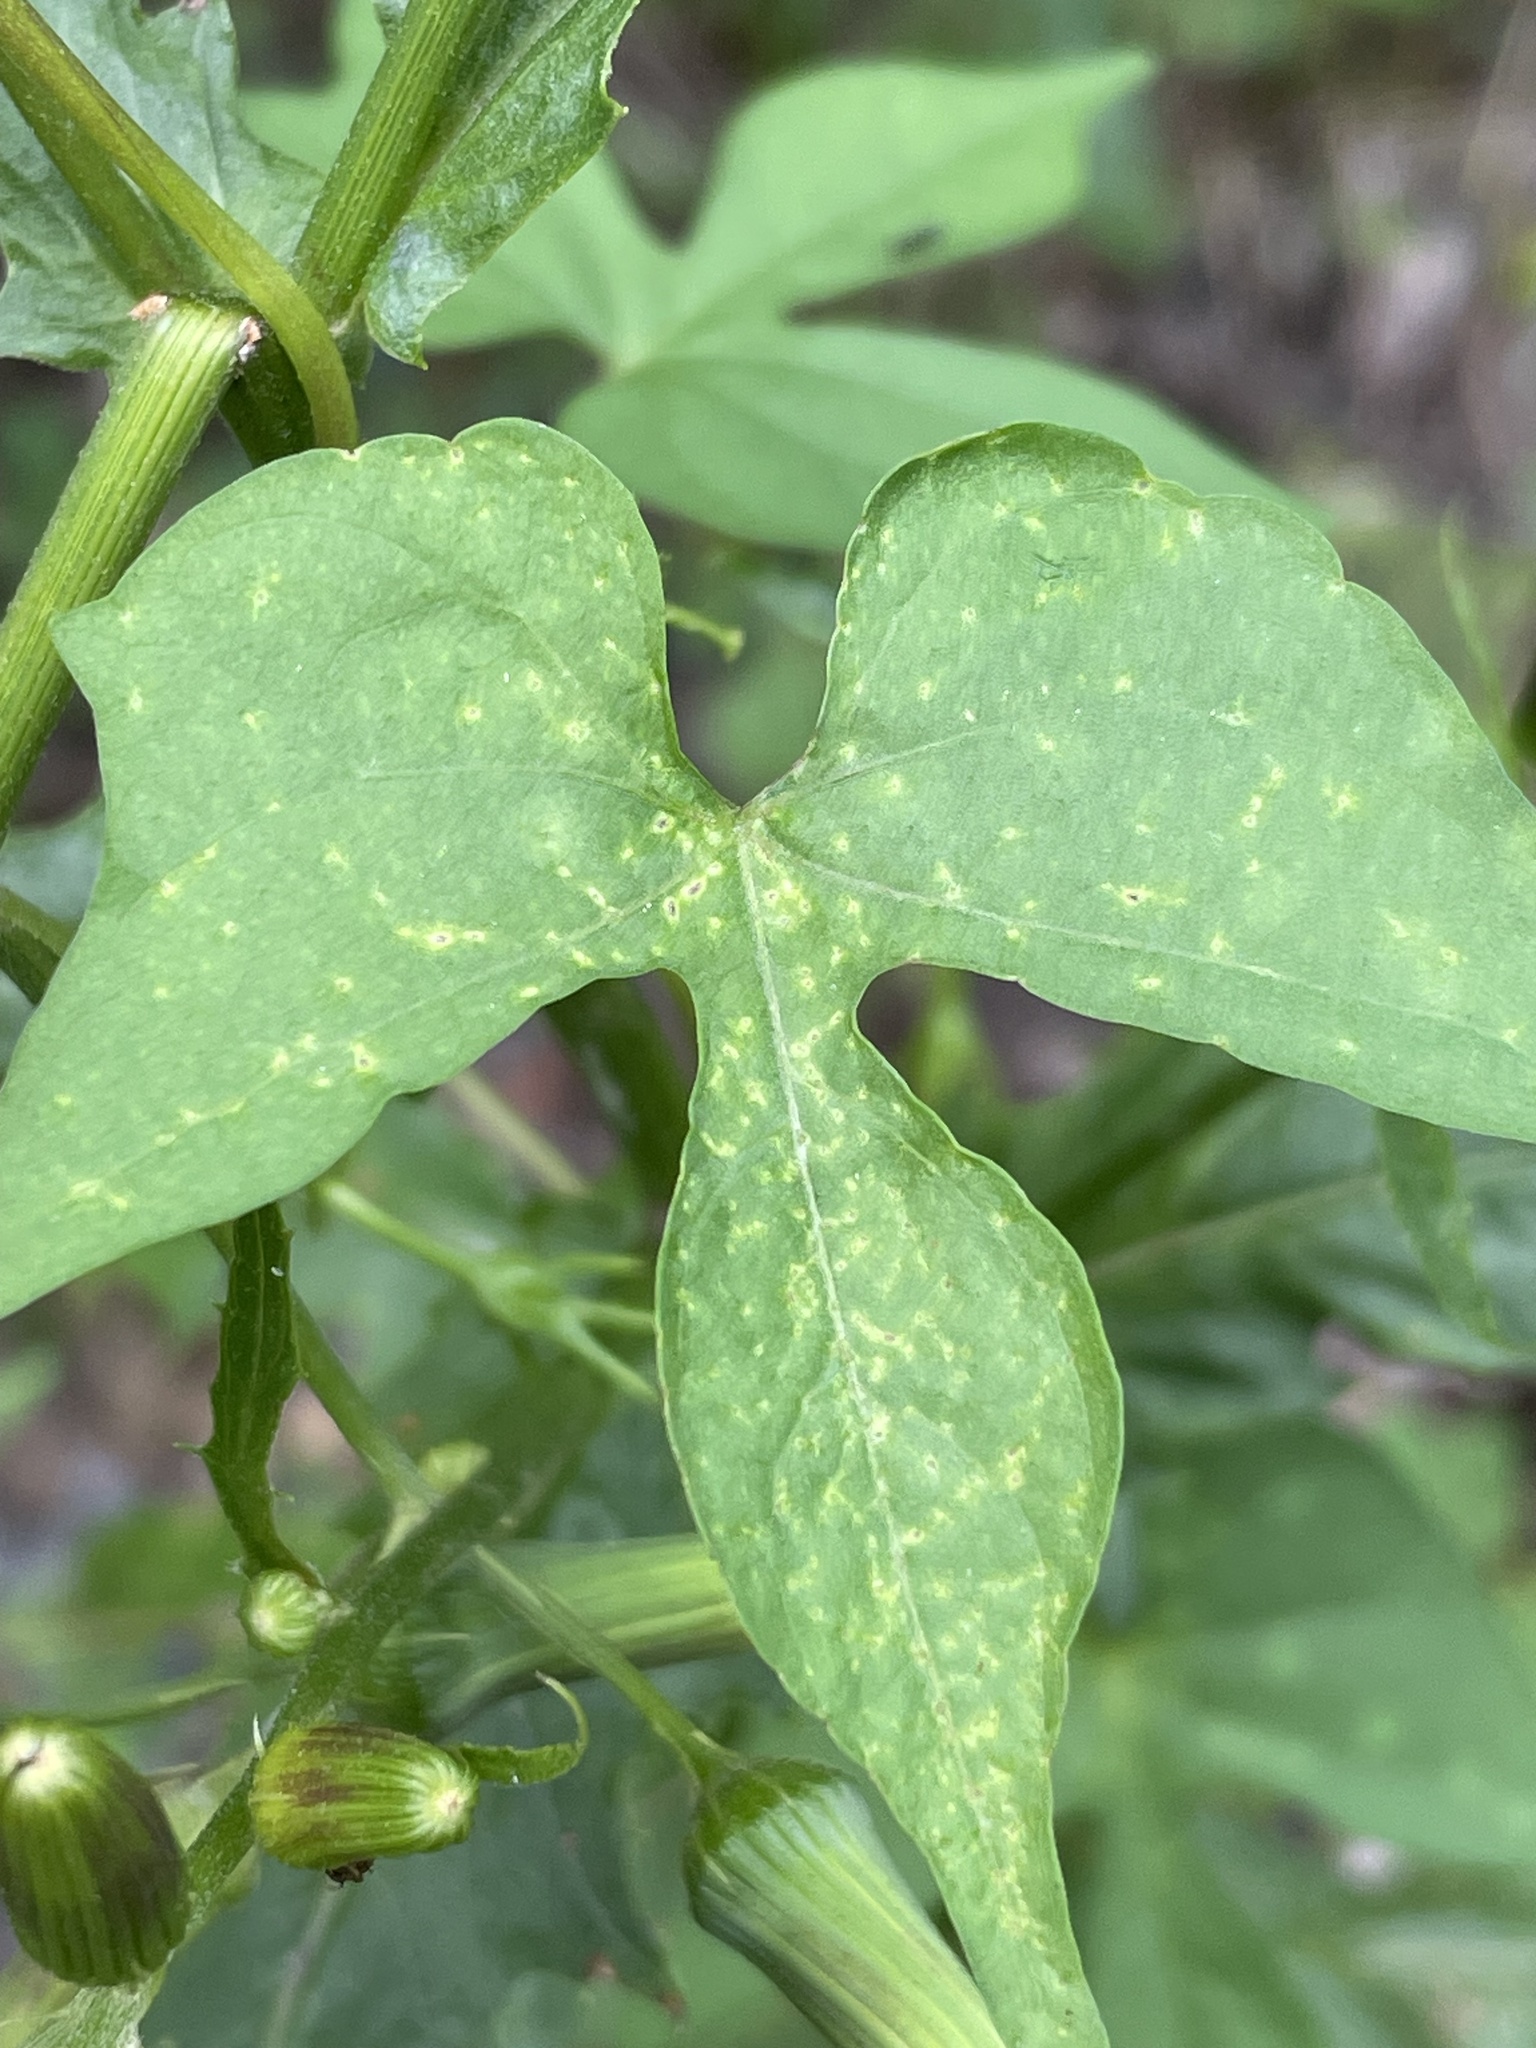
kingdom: Plantae
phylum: Tracheophyta
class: Magnoliopsida
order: Solanales
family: Convolvulaceae
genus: Ipomoea
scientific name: Ipomoea cristulata
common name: Trans-pecos morning-glory
